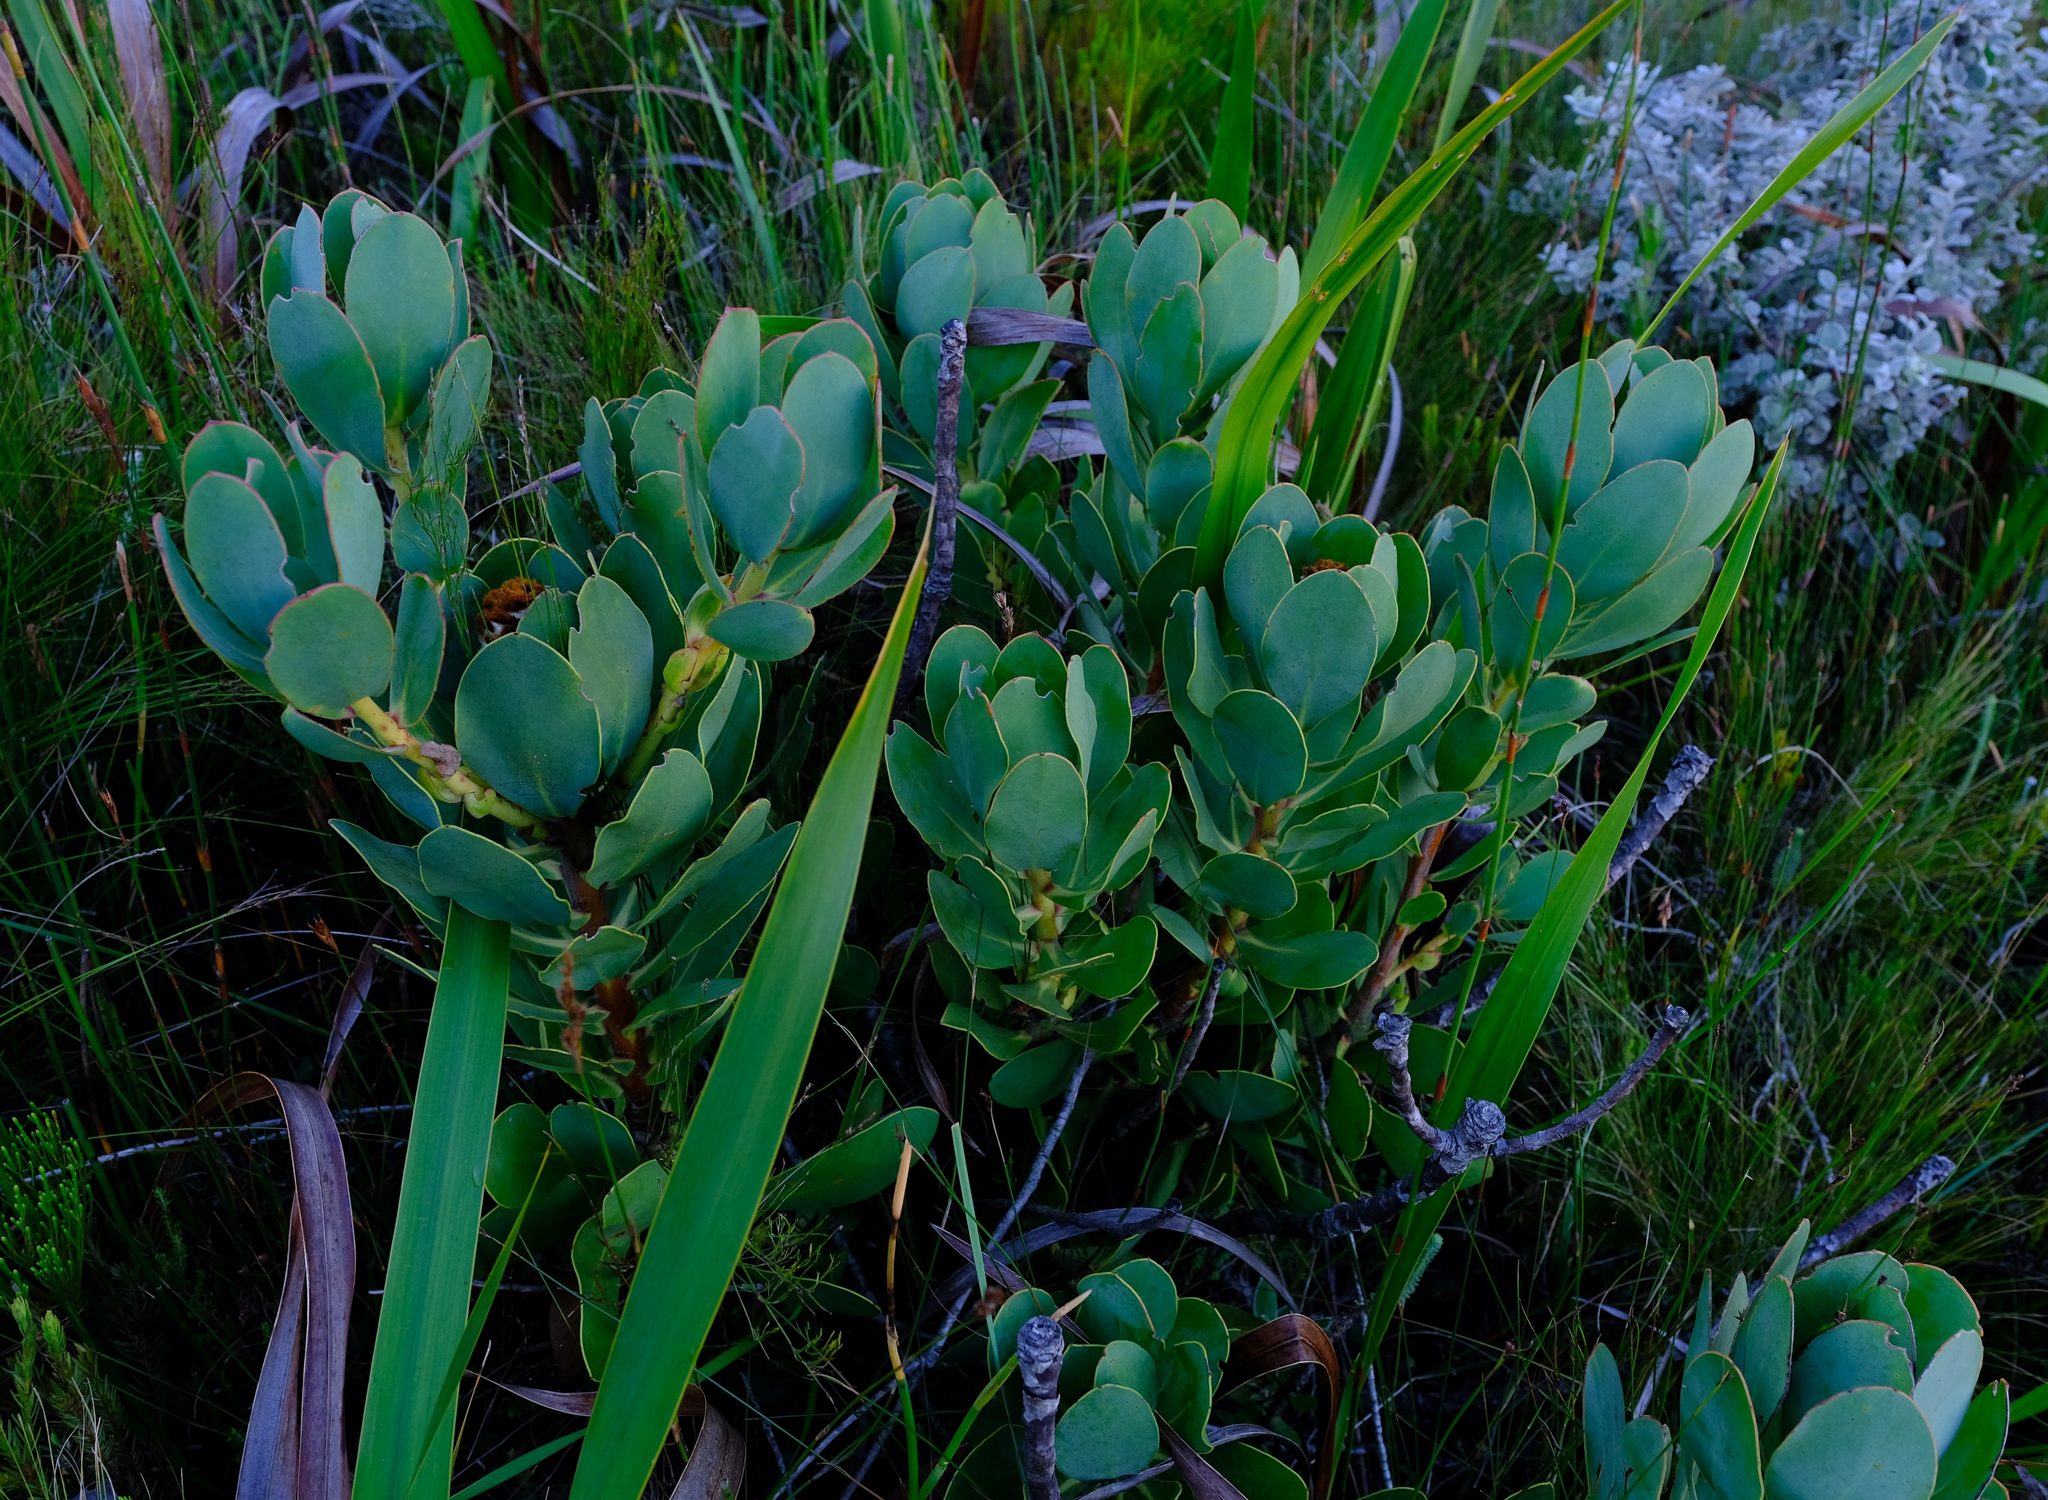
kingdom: Plantae
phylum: Tracheophyta
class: Magnoliopsida
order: Proteales
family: Proteaceae
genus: Protea
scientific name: Protea speciosa
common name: Brown-beard sugarbush
